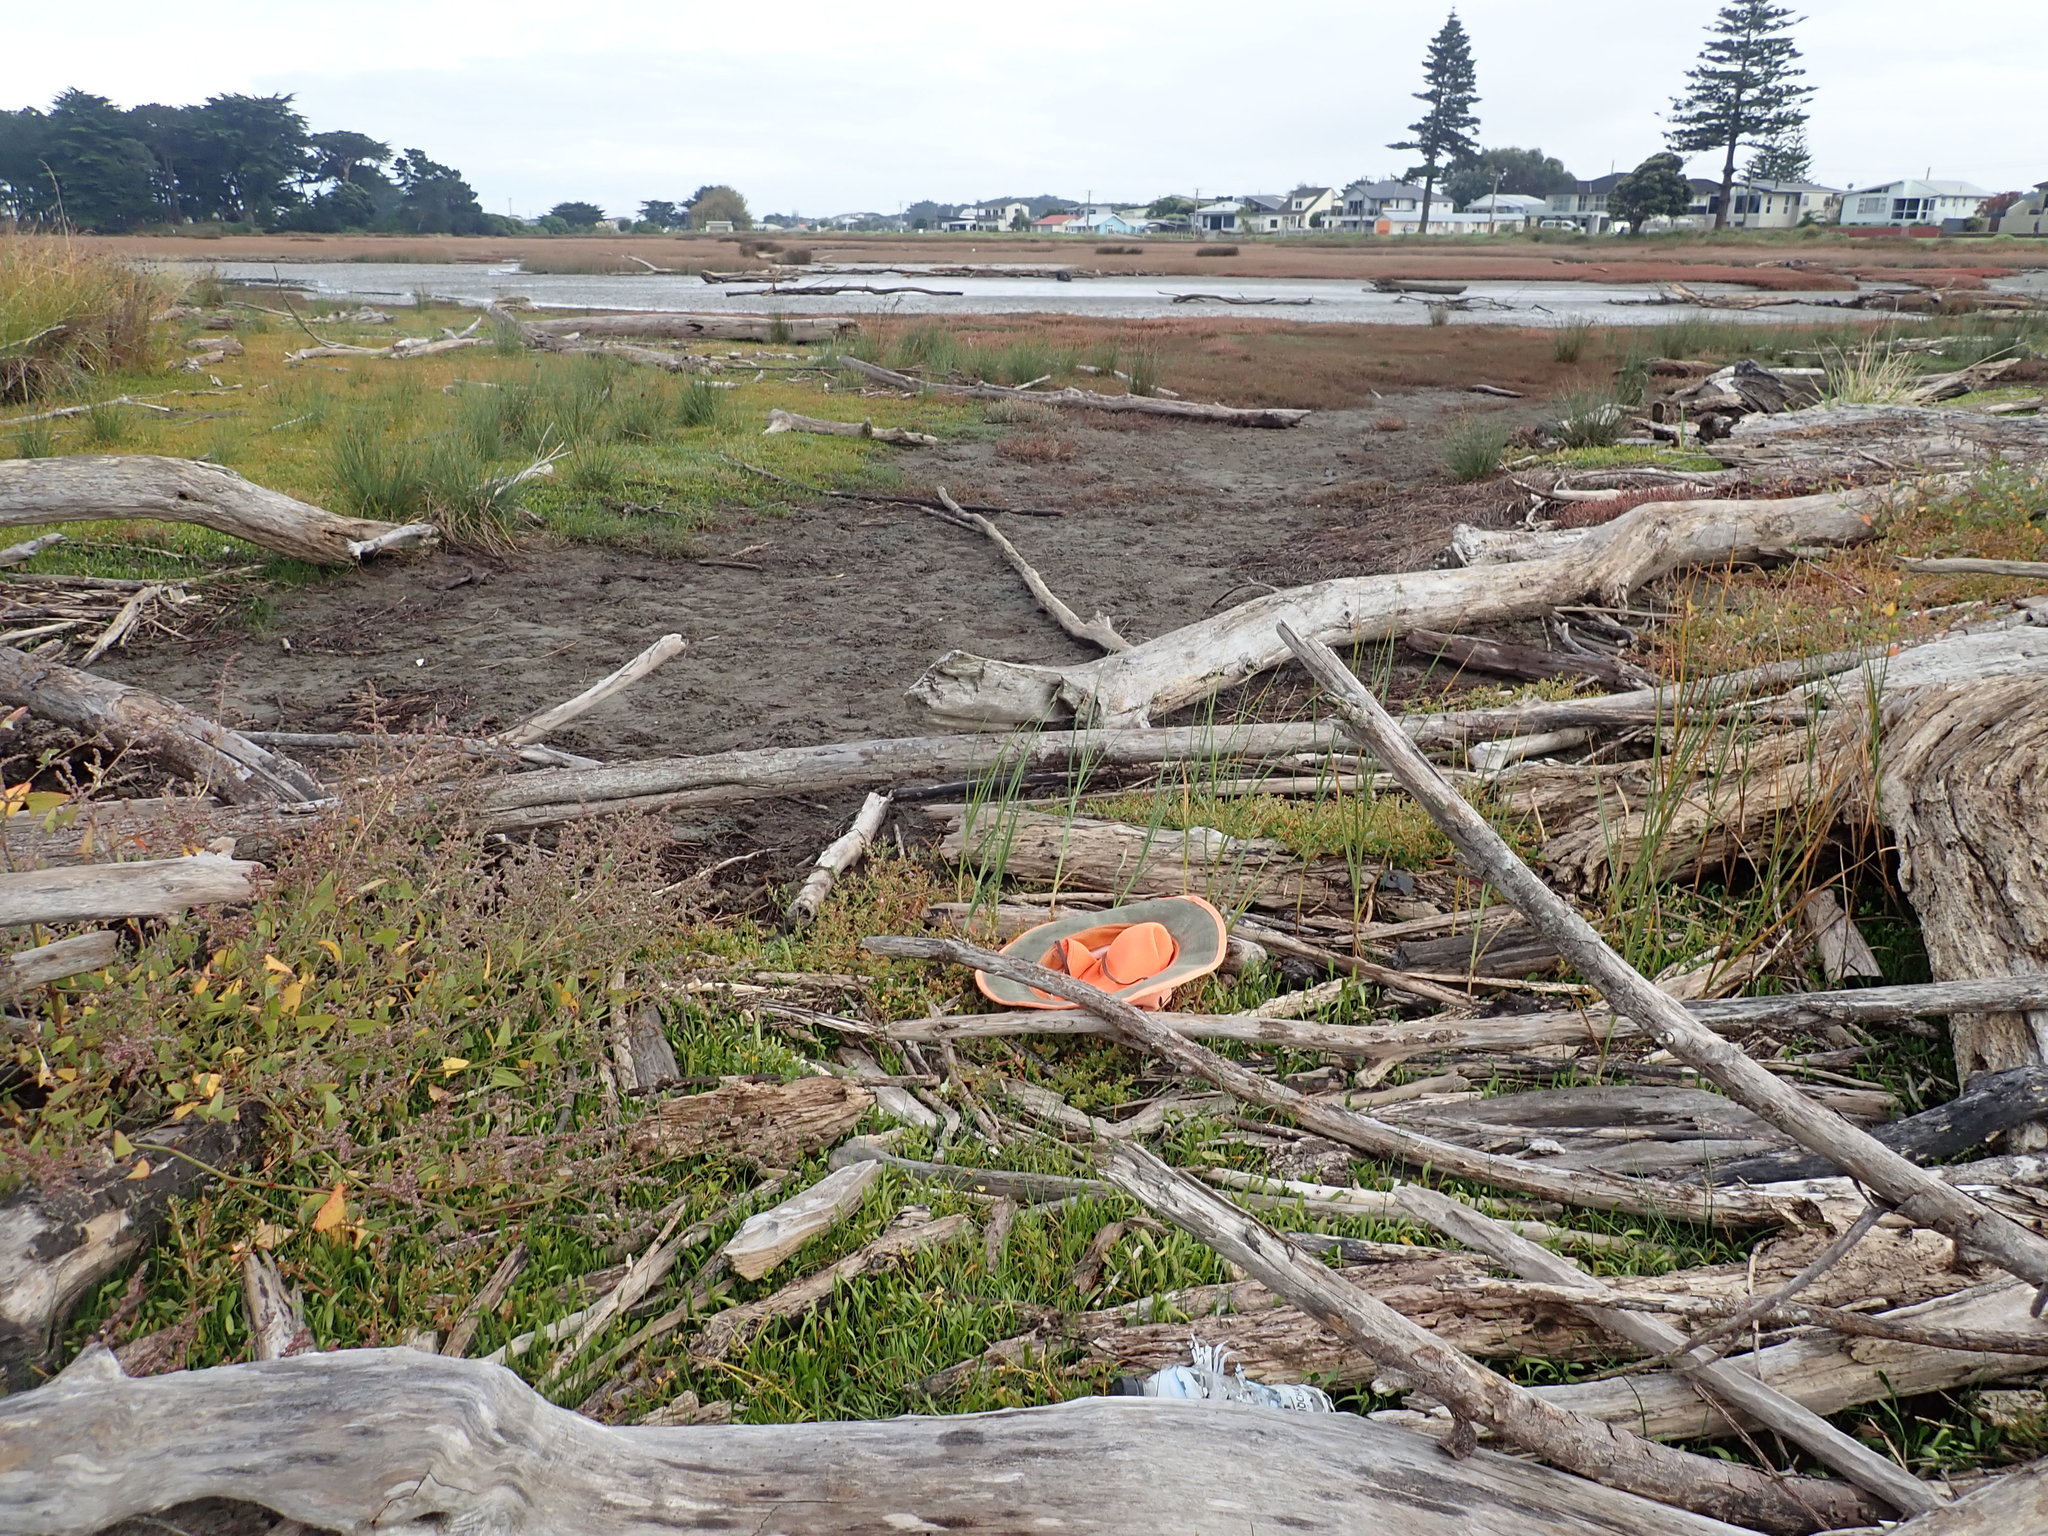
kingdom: Plantae
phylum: Tracheophyta
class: Magnoliopsida
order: Caryophyllales
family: Amaranthaceae
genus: Oxybasis
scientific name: Oxybasis ambigua
